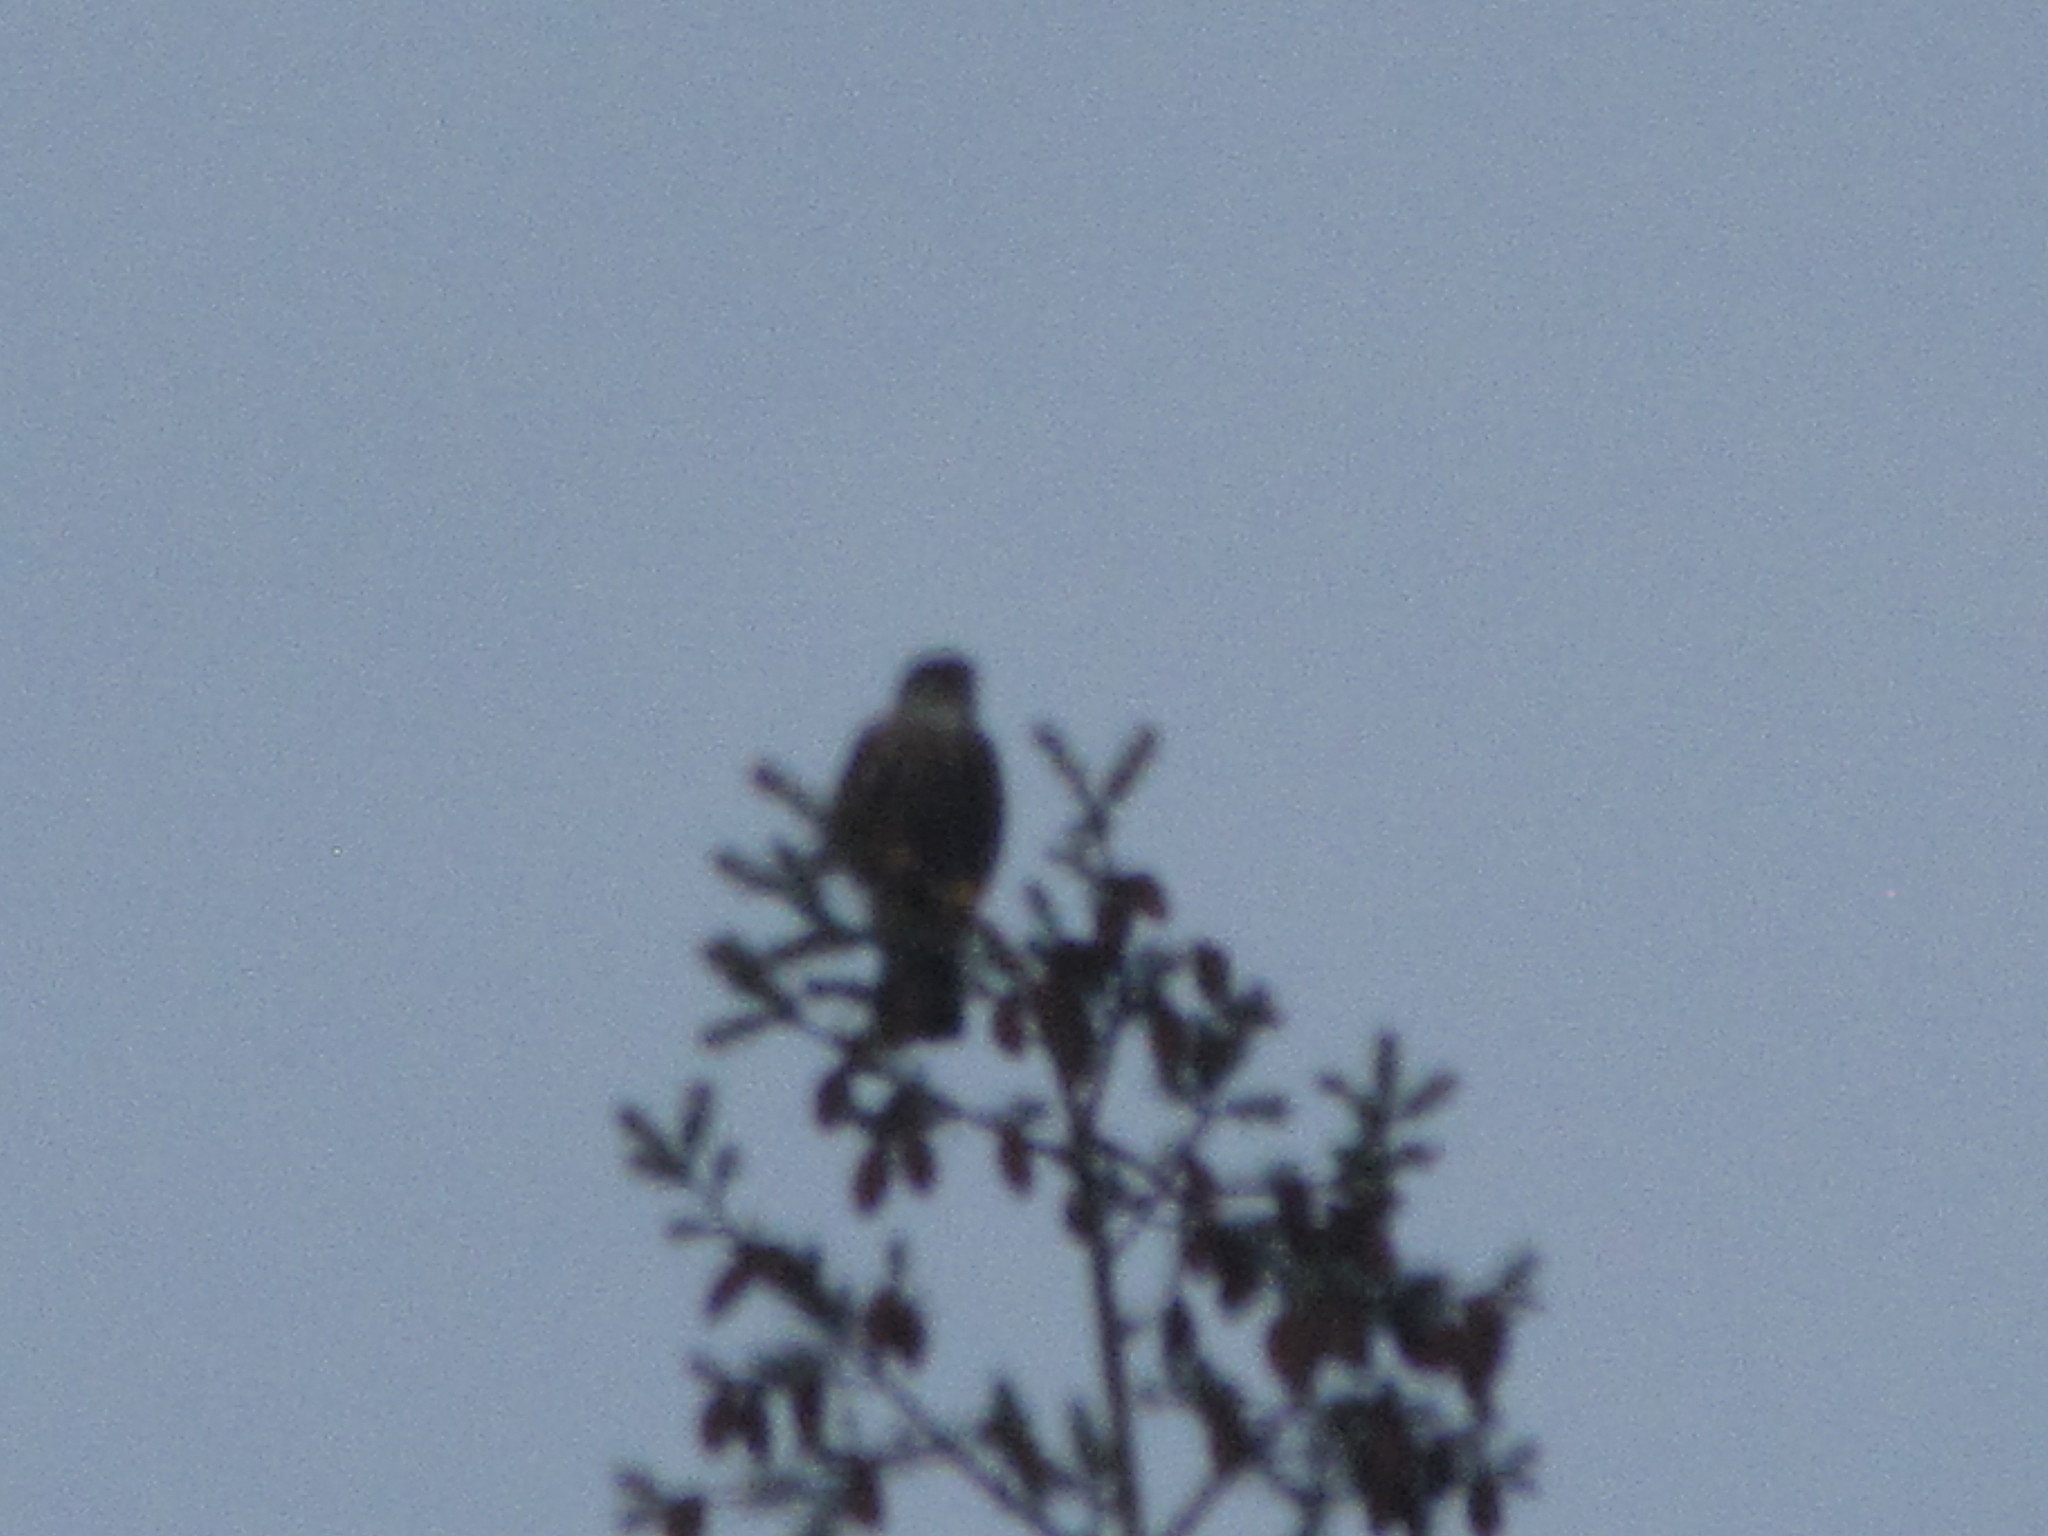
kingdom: Animalia
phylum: Chordata
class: Aves
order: Falconiformes
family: Falconidae
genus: Falco
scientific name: Falco columbarius
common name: Merlin
